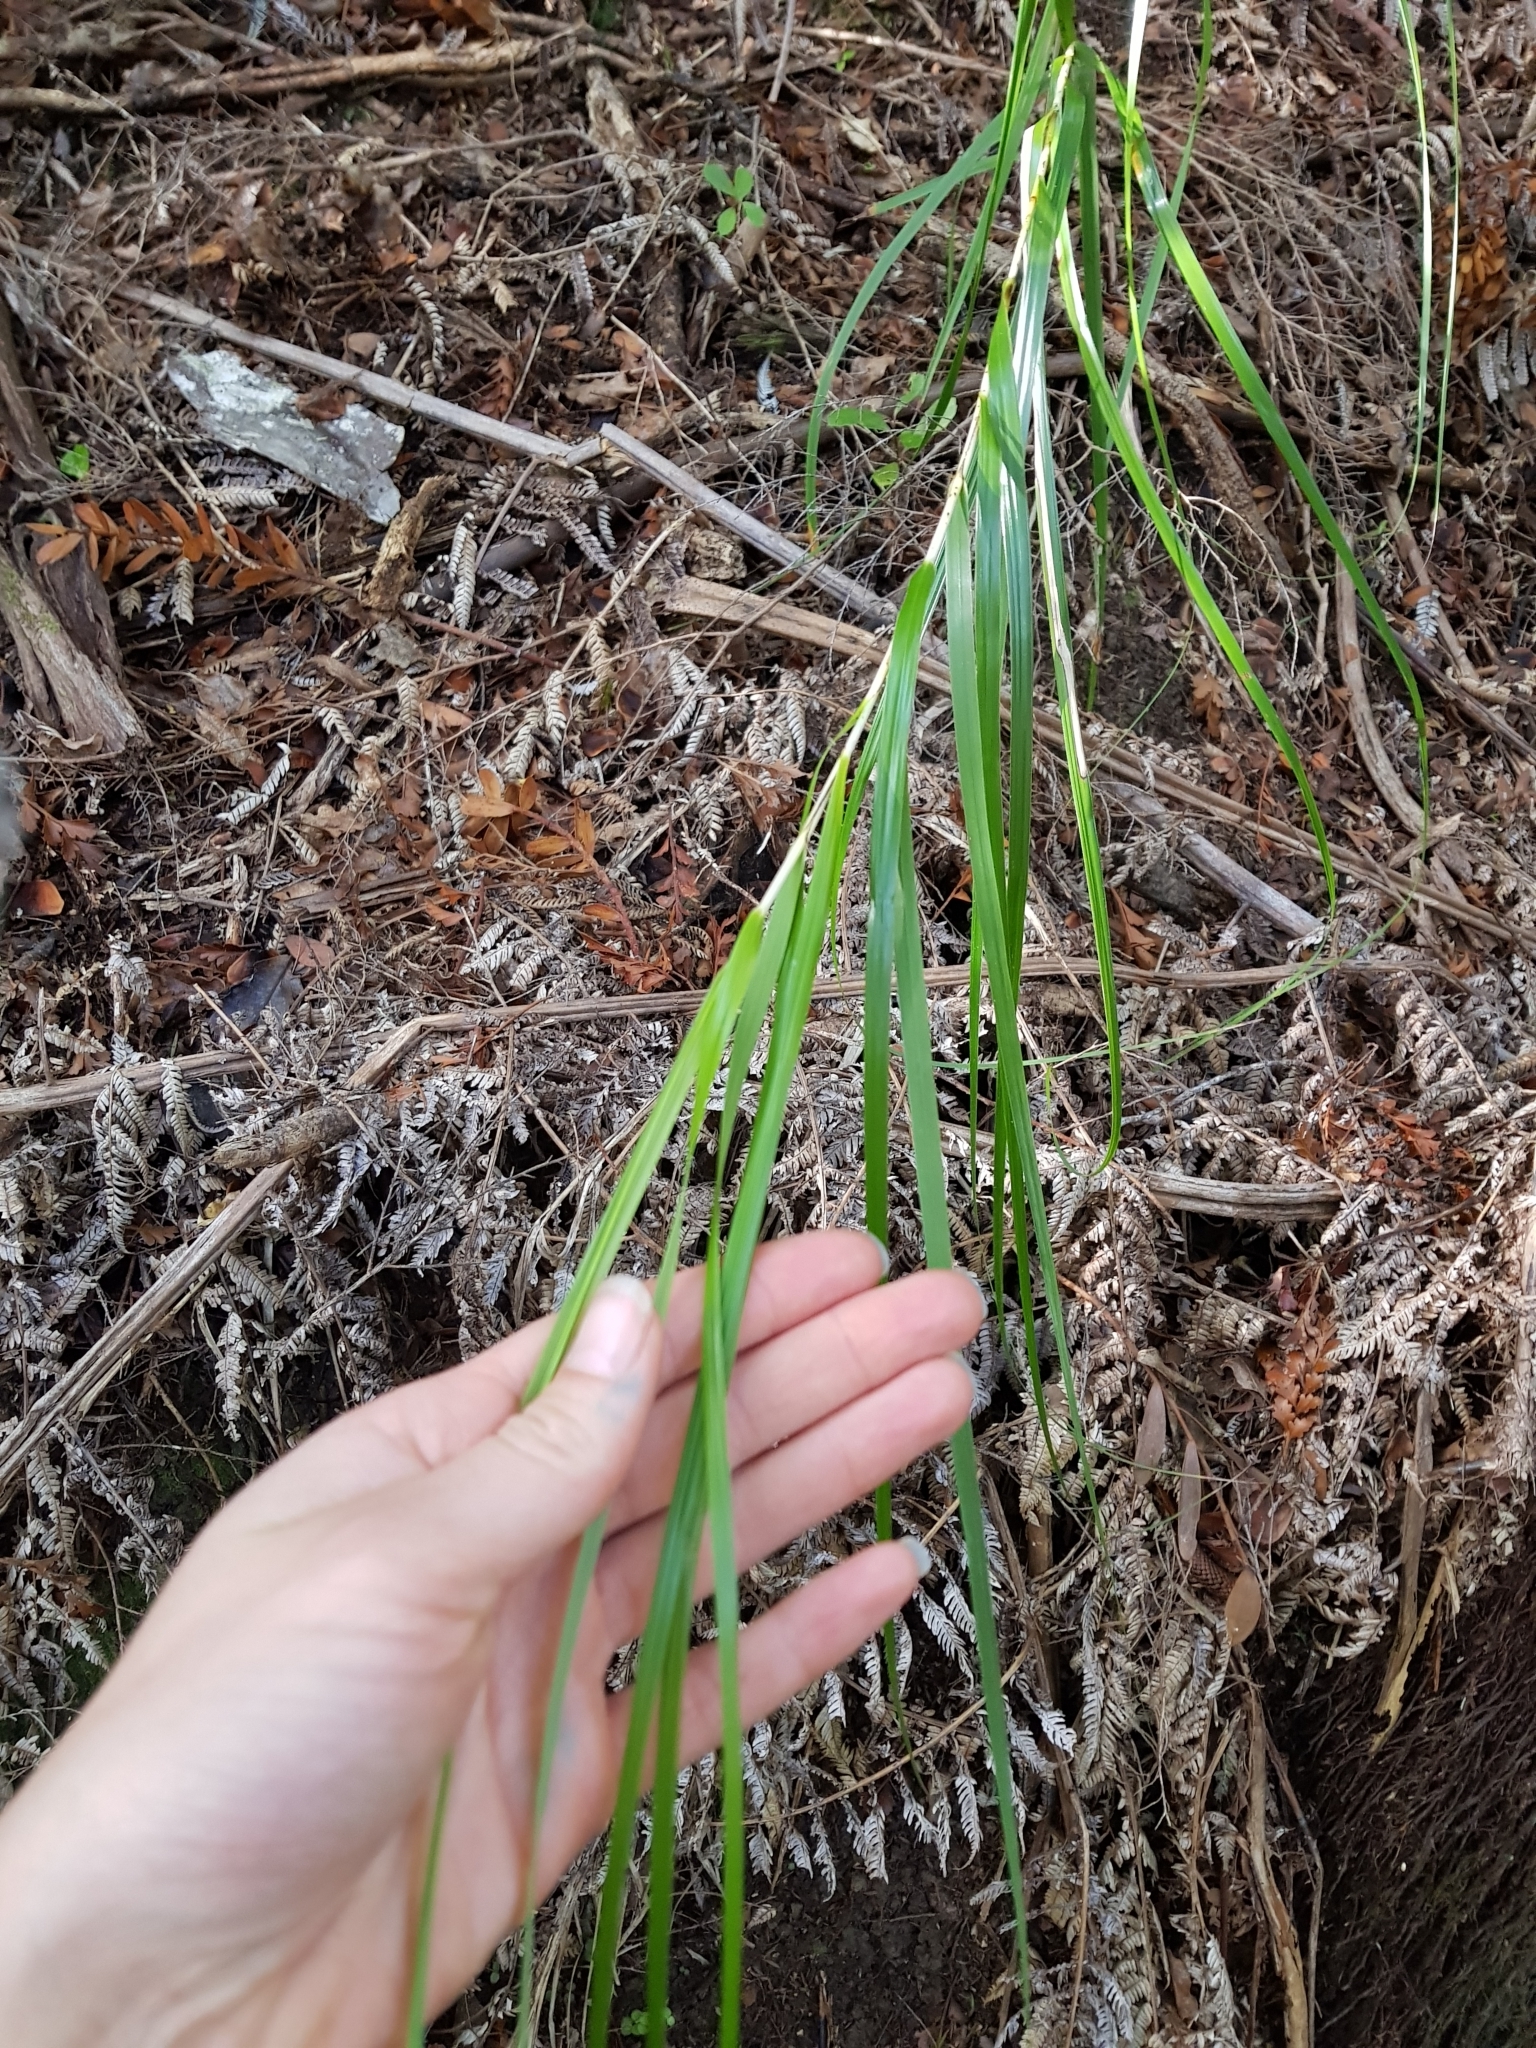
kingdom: Plantae
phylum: Tracheophyta
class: Liliopsida
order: Poales
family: Cyperaceae
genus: Gahnia
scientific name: Gahnia lacera
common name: Sawsedge
